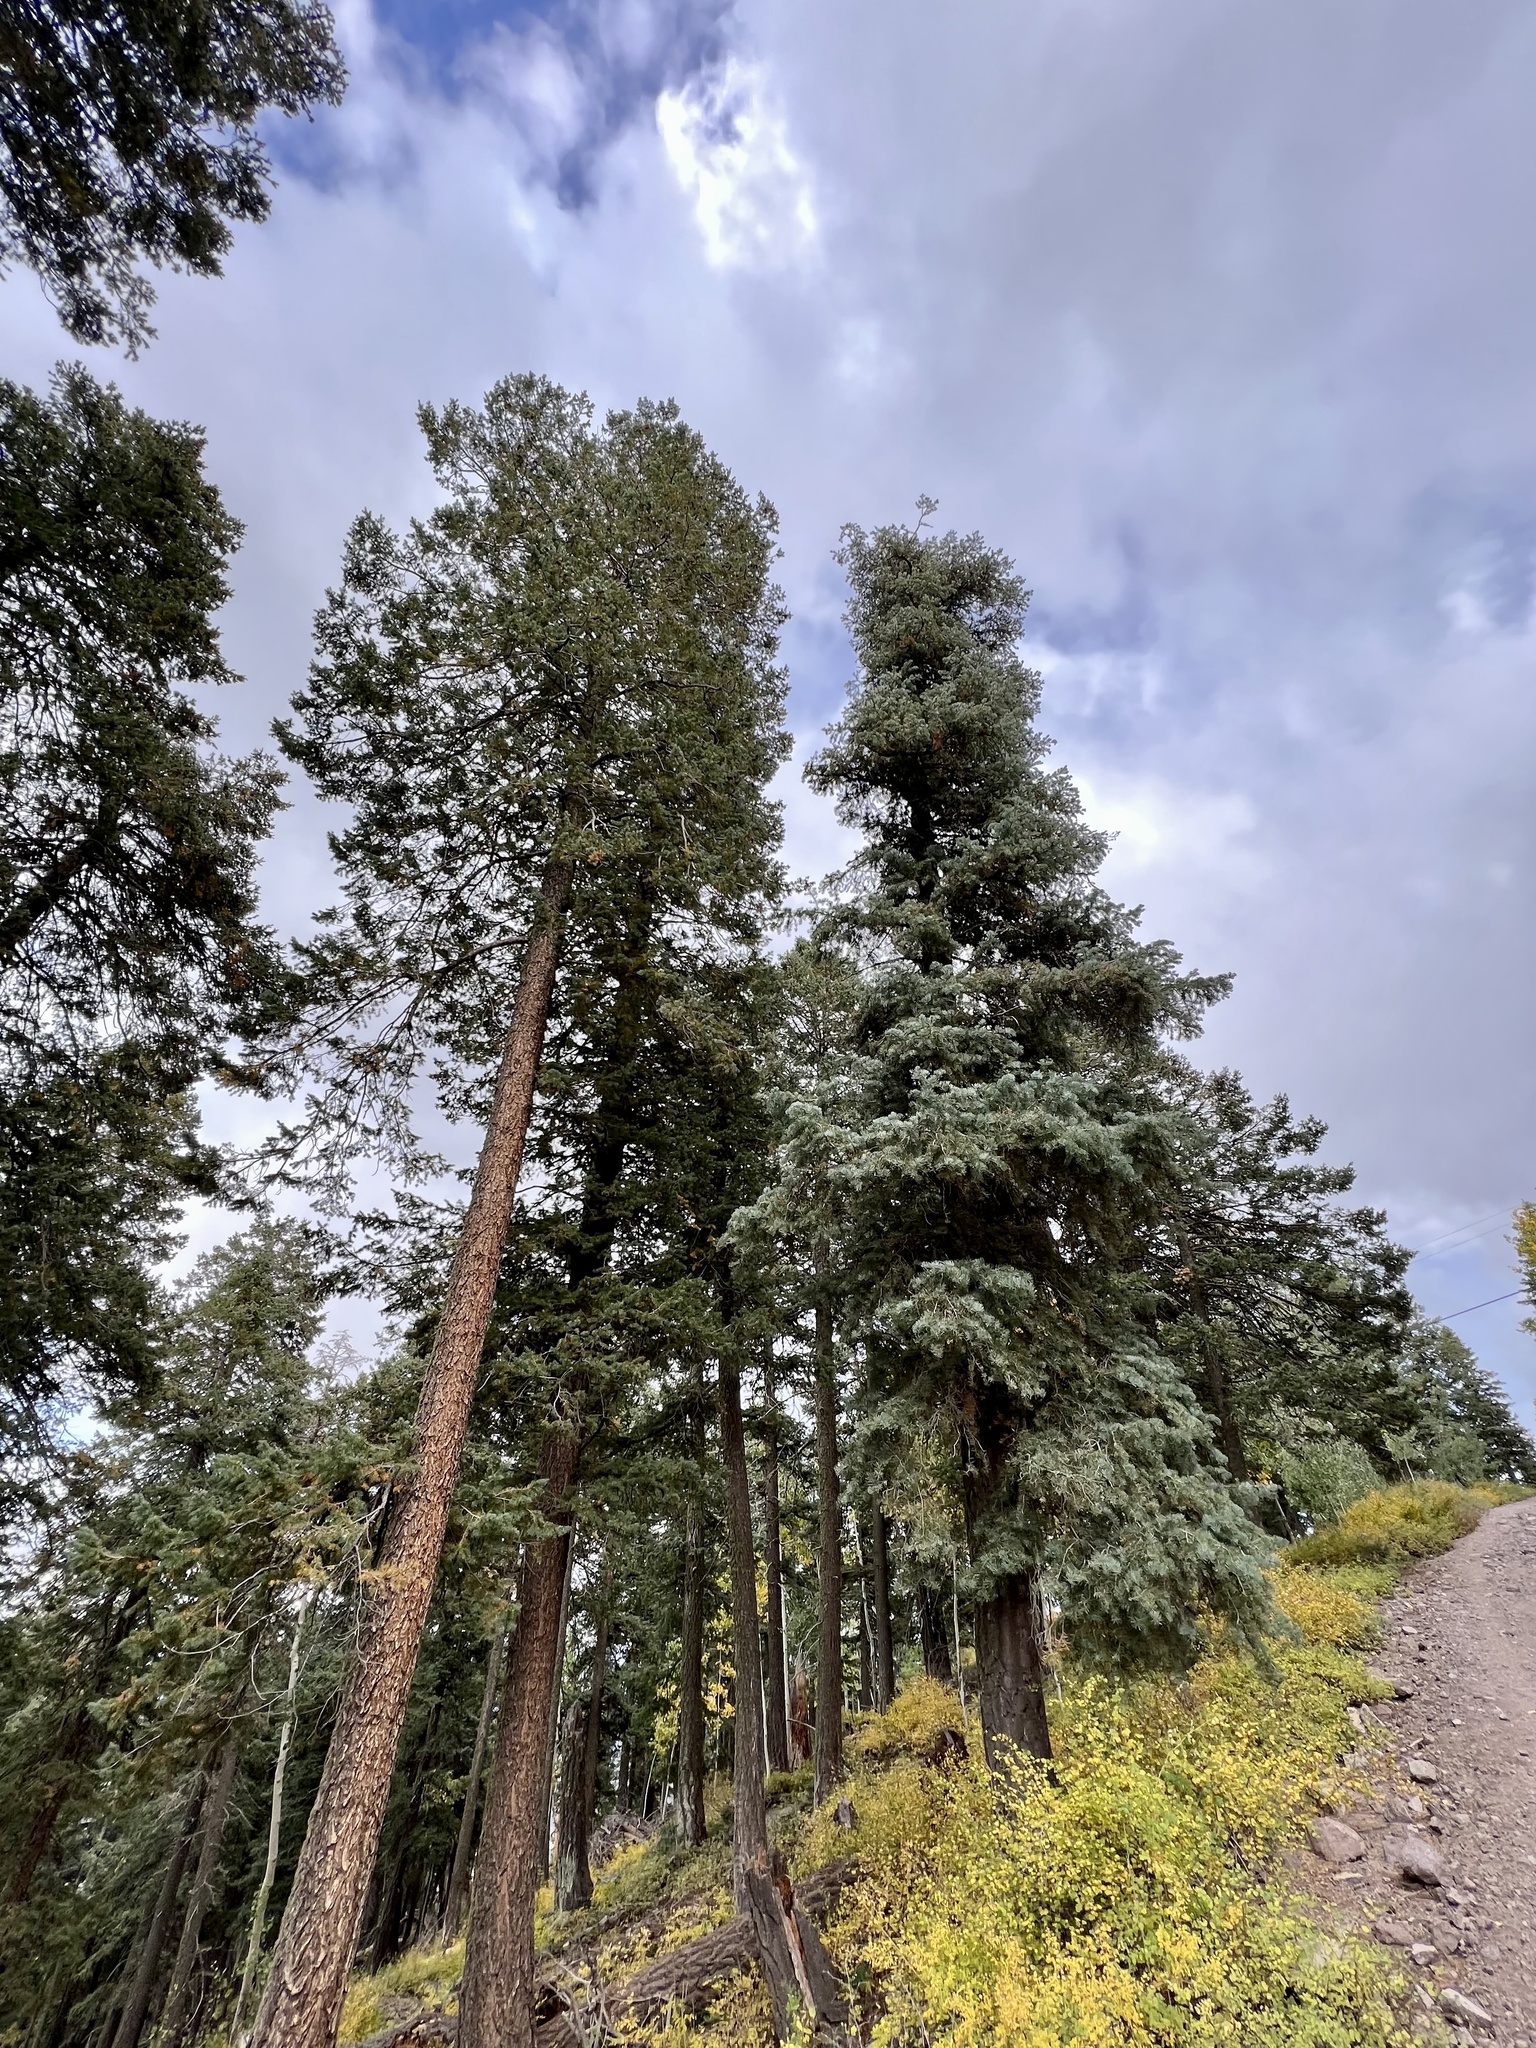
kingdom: Plantae
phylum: Tracheophyta
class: Pinopsida
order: Pinales
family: Pinaceae
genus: Pseudotsuga
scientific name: Pseudotsuga menziesii
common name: Douglas fir
